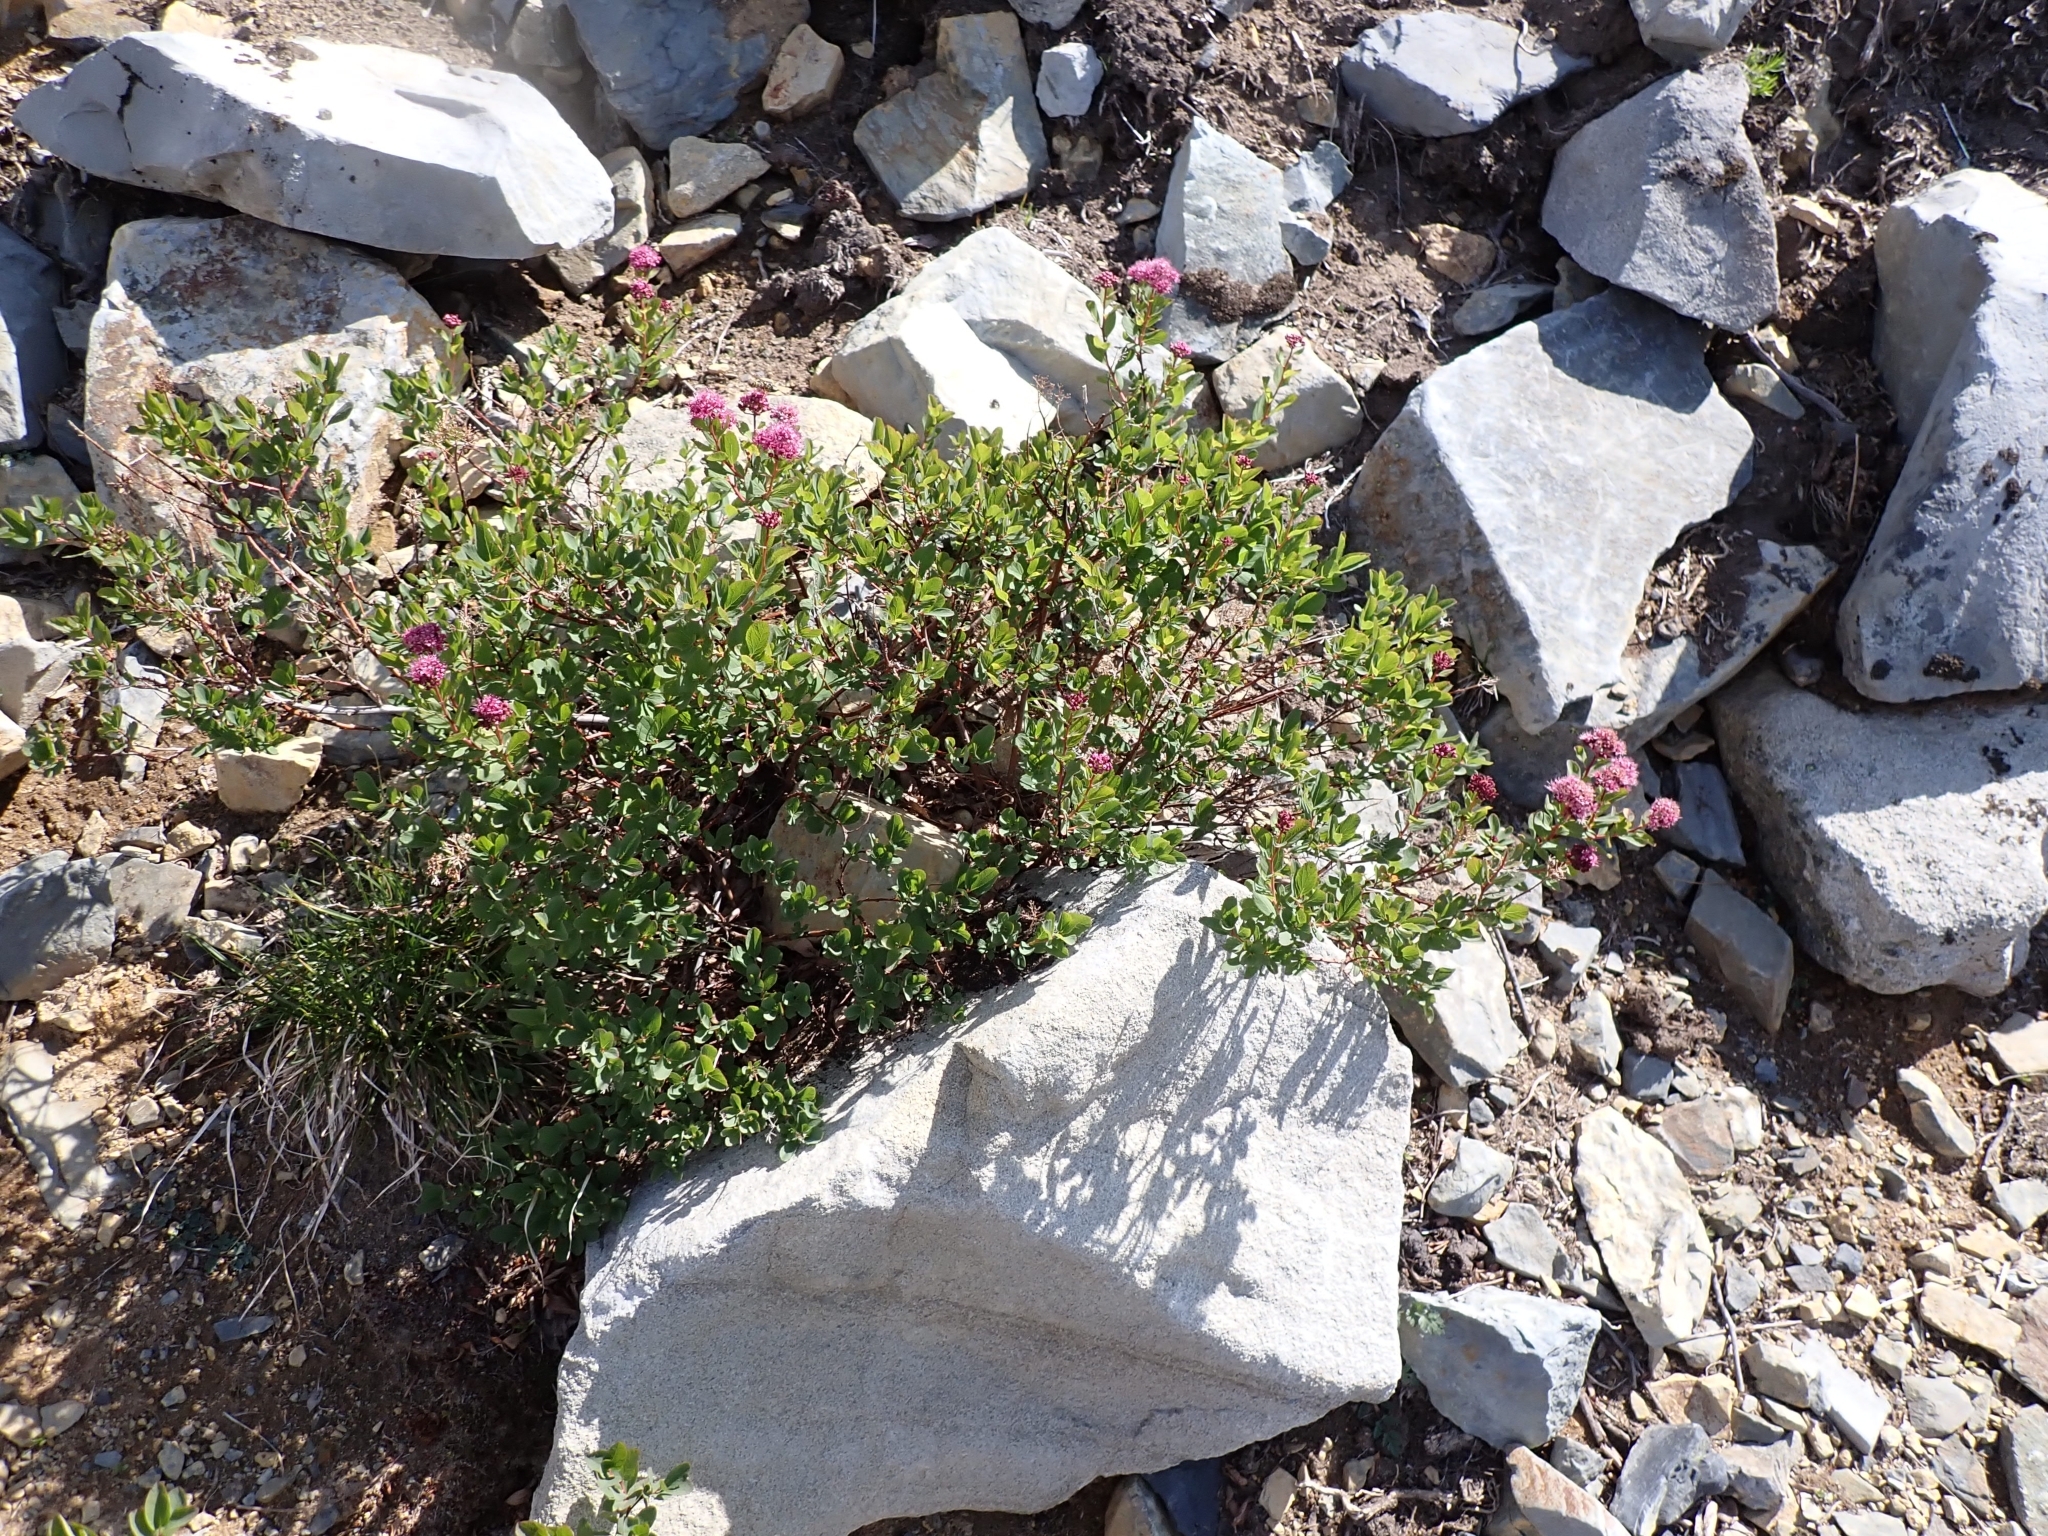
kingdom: Plantae
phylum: Tracheophyta
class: Magnoliopsida
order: Rosales
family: Rosaceae
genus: Spiraea
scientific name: Spiraea splendens
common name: Subalpine meadowsweet
